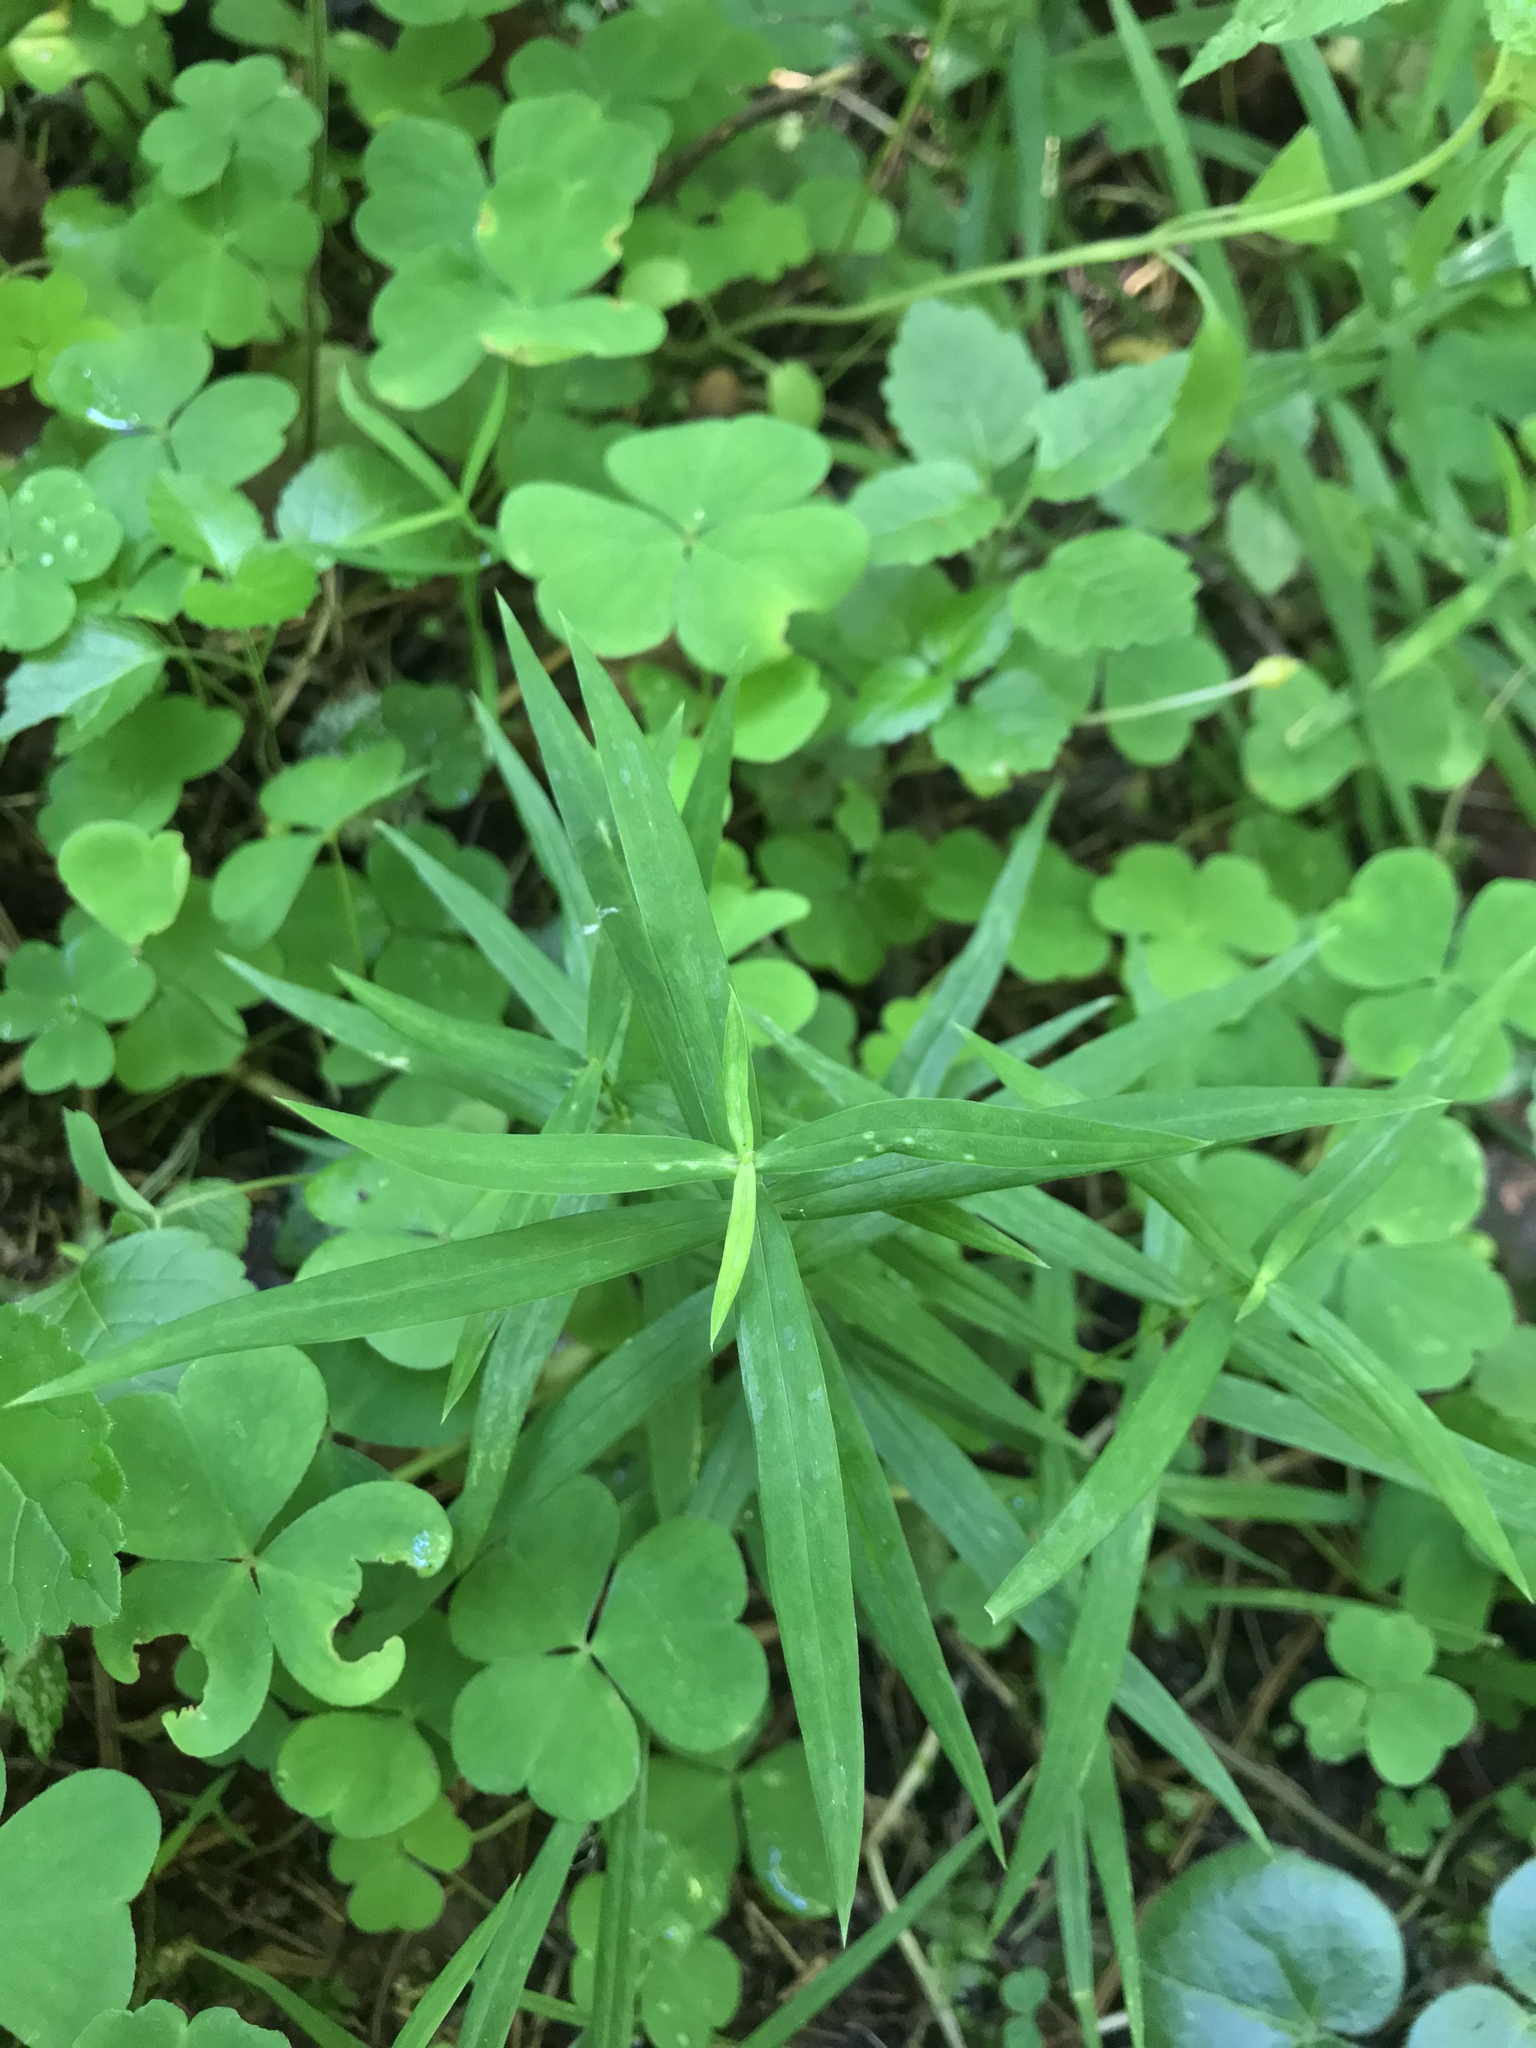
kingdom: Plantae
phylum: Tracheophyta
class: Magnoliopsida
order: Caryophyllales
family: Caryophyllaceae
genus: Rabelera
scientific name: Rabelera holostea
